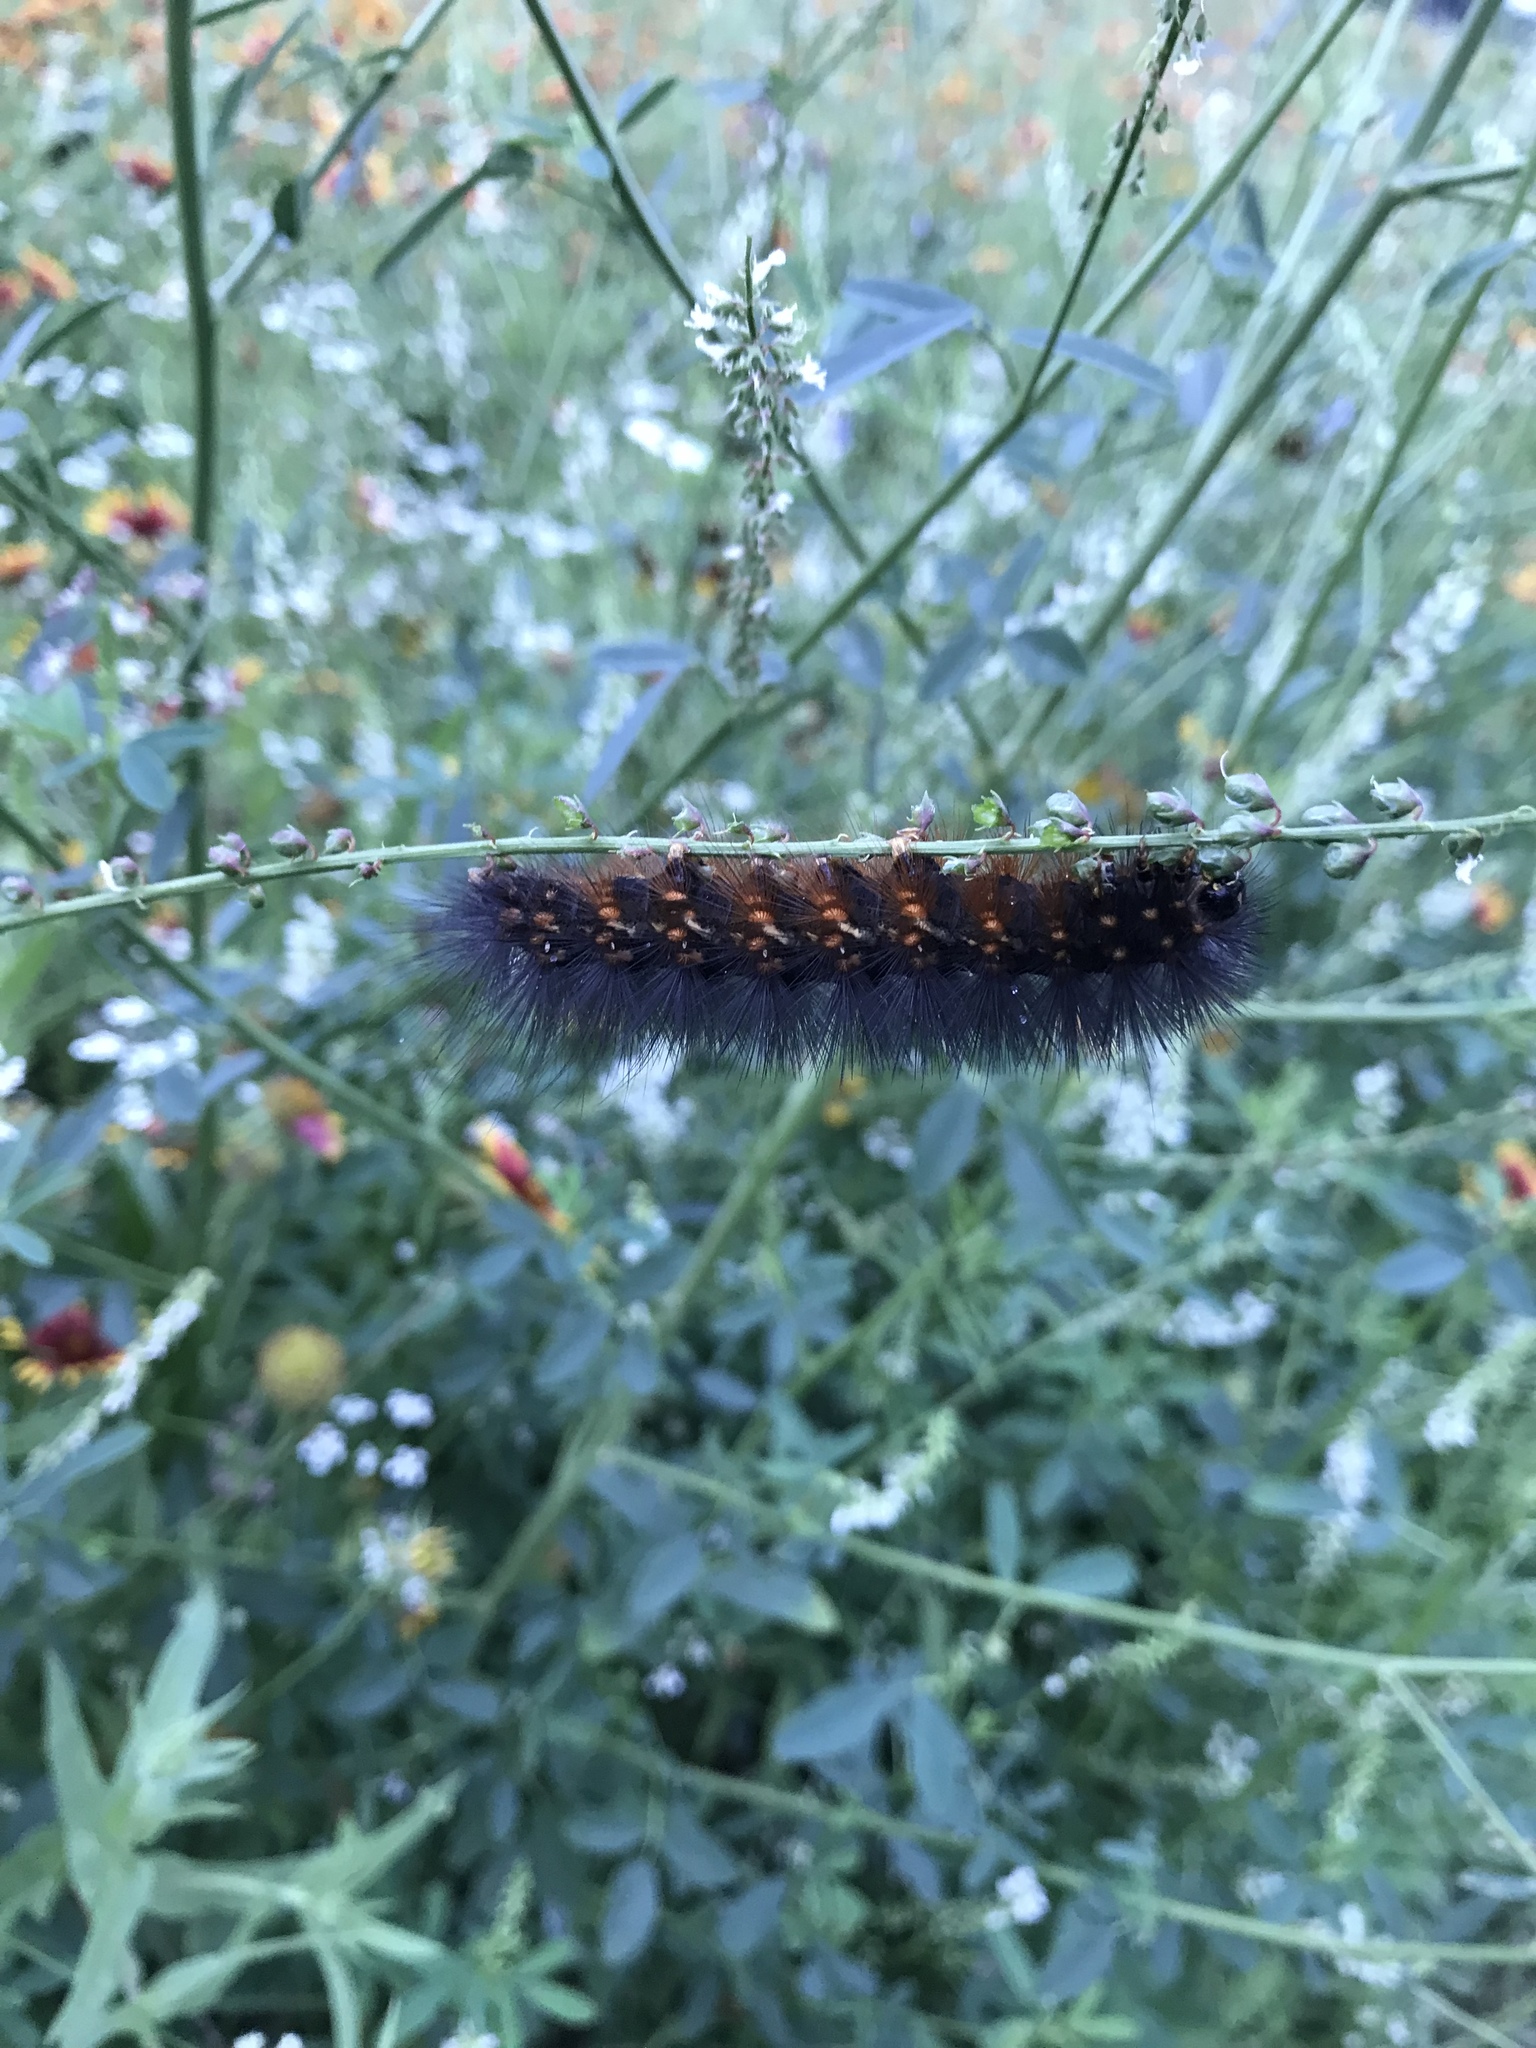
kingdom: Animalia
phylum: Arthropoda
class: Insecta
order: Lepidoptera
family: Erebidae
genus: Estigmene
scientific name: Estigmene acrea
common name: Salt marsh moth
